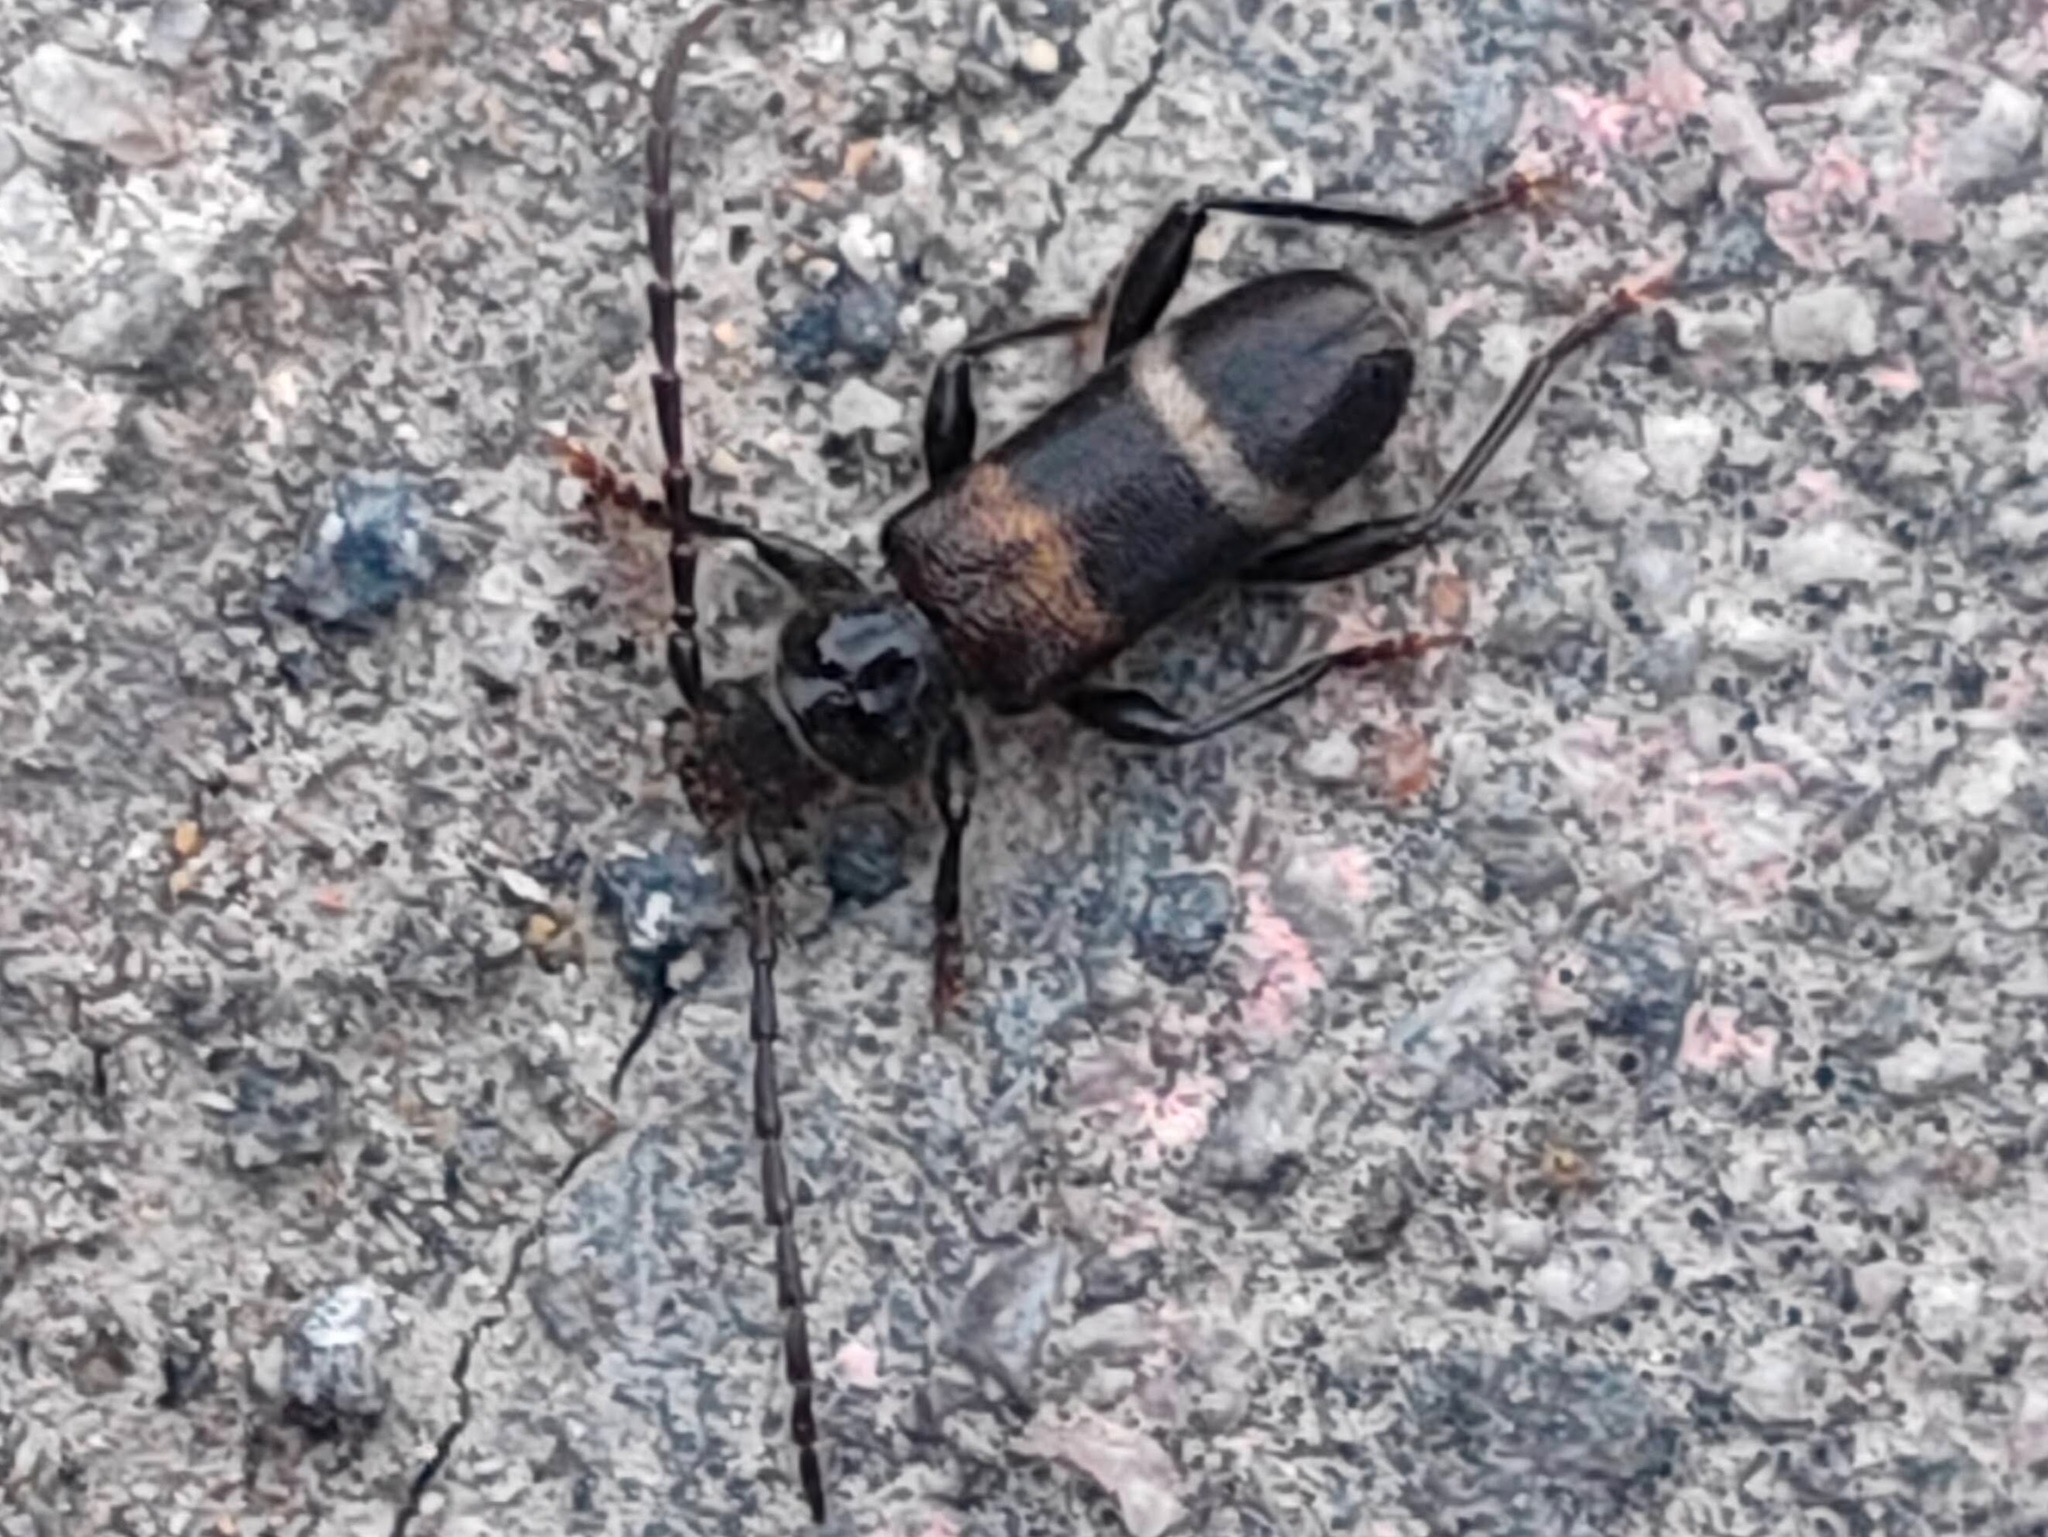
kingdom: Animalia
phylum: Arthropoda
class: Insecta
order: Coleoptera
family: Cerambycidae
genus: Semanotus
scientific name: Semanotus bifasciatus
